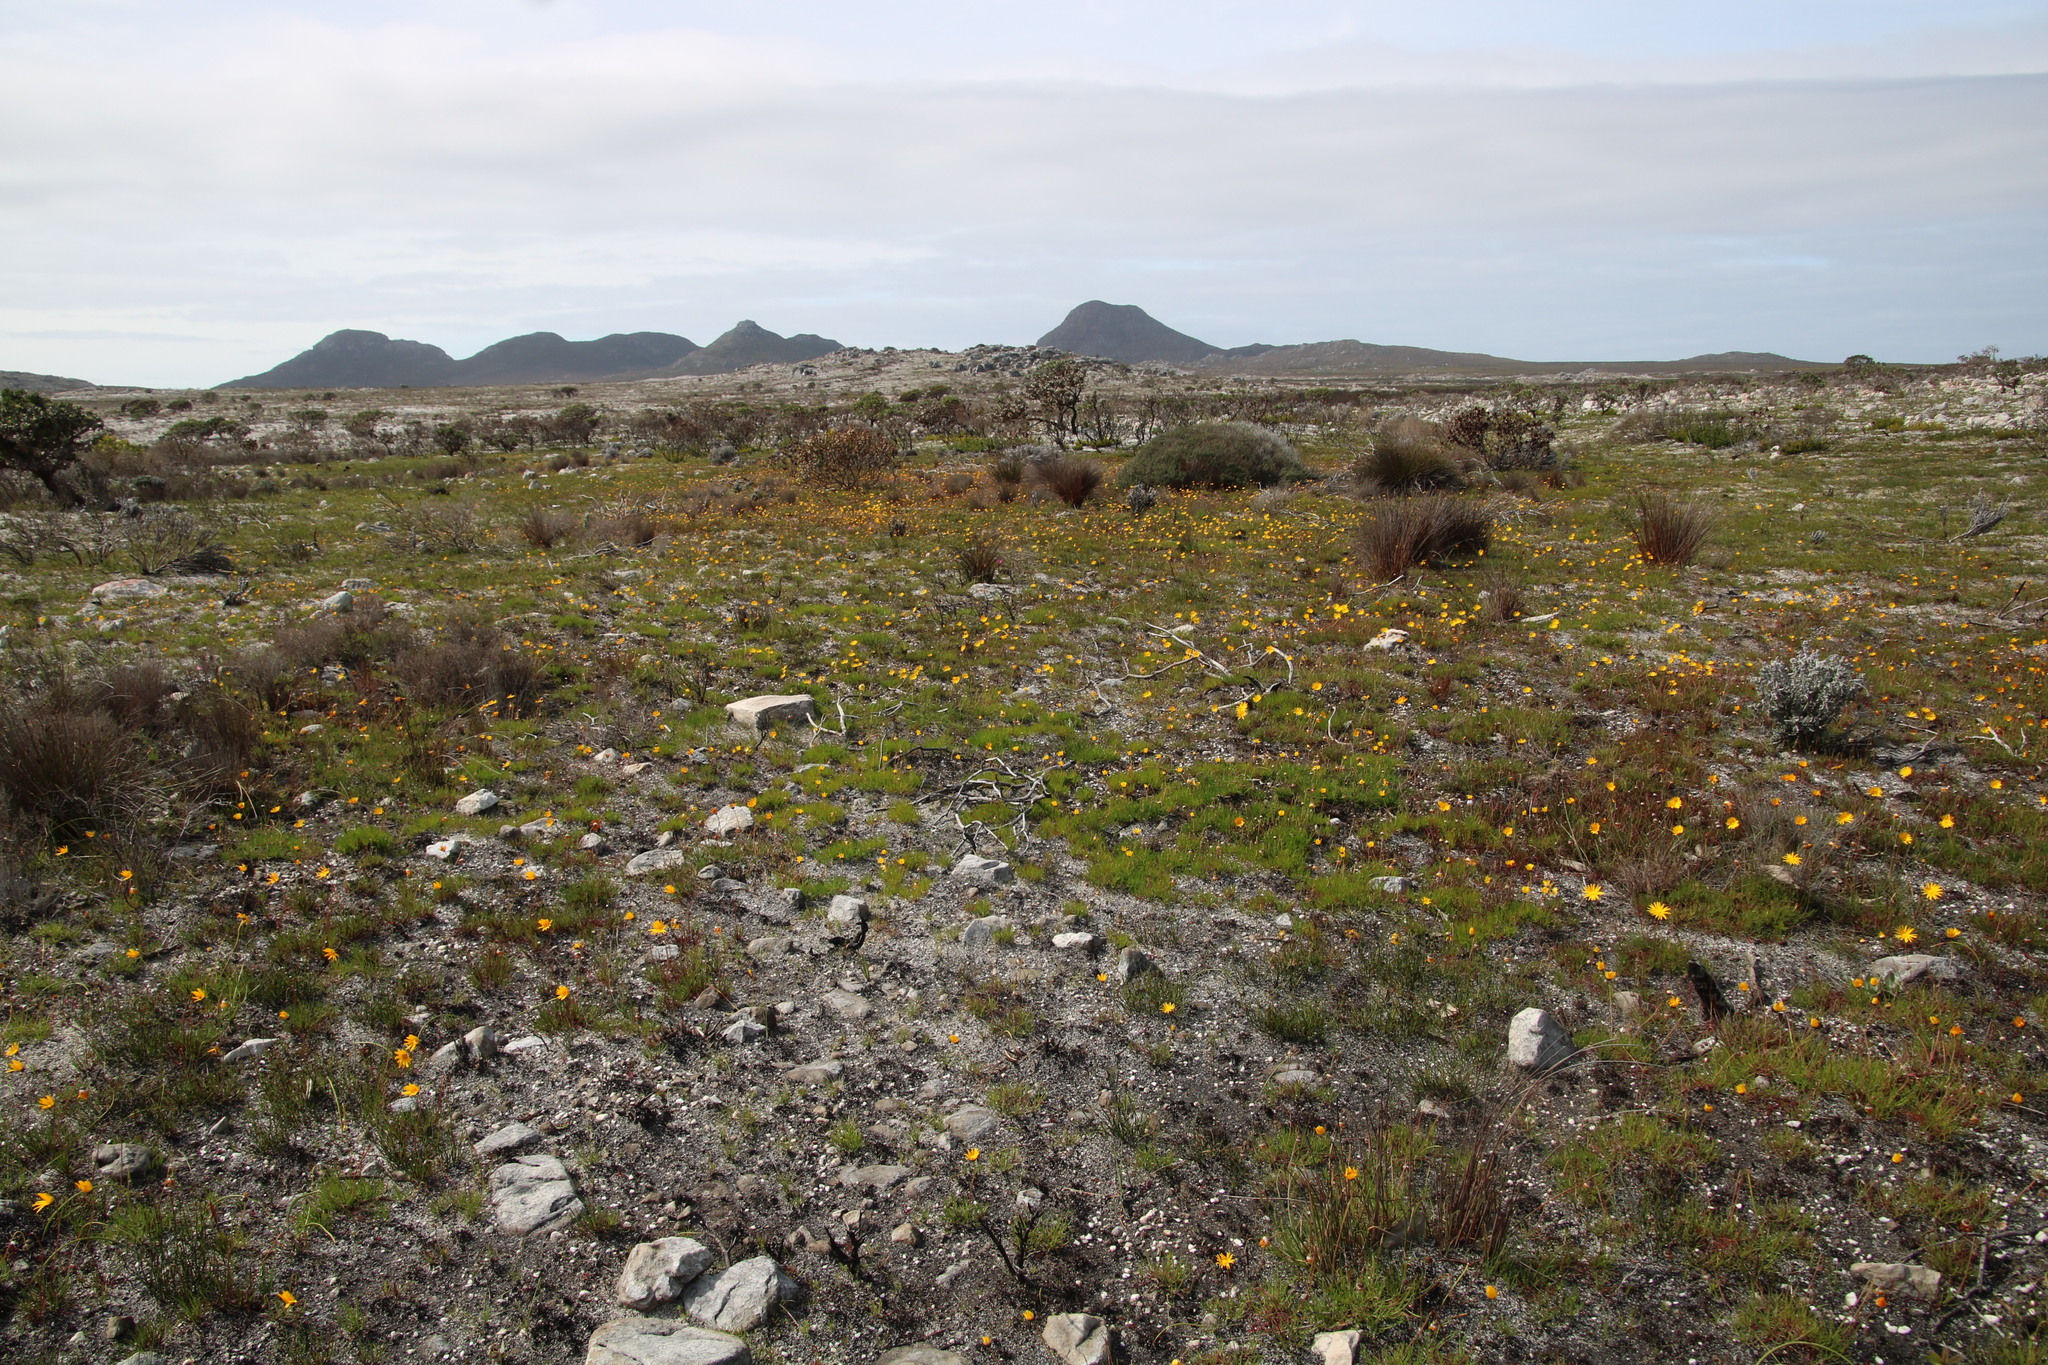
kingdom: Plantae
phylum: Tracheophyta
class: Magnoliopsida
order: Asterales
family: Asteraceae
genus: Ursinia
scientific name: Ursinia tenuifolia
